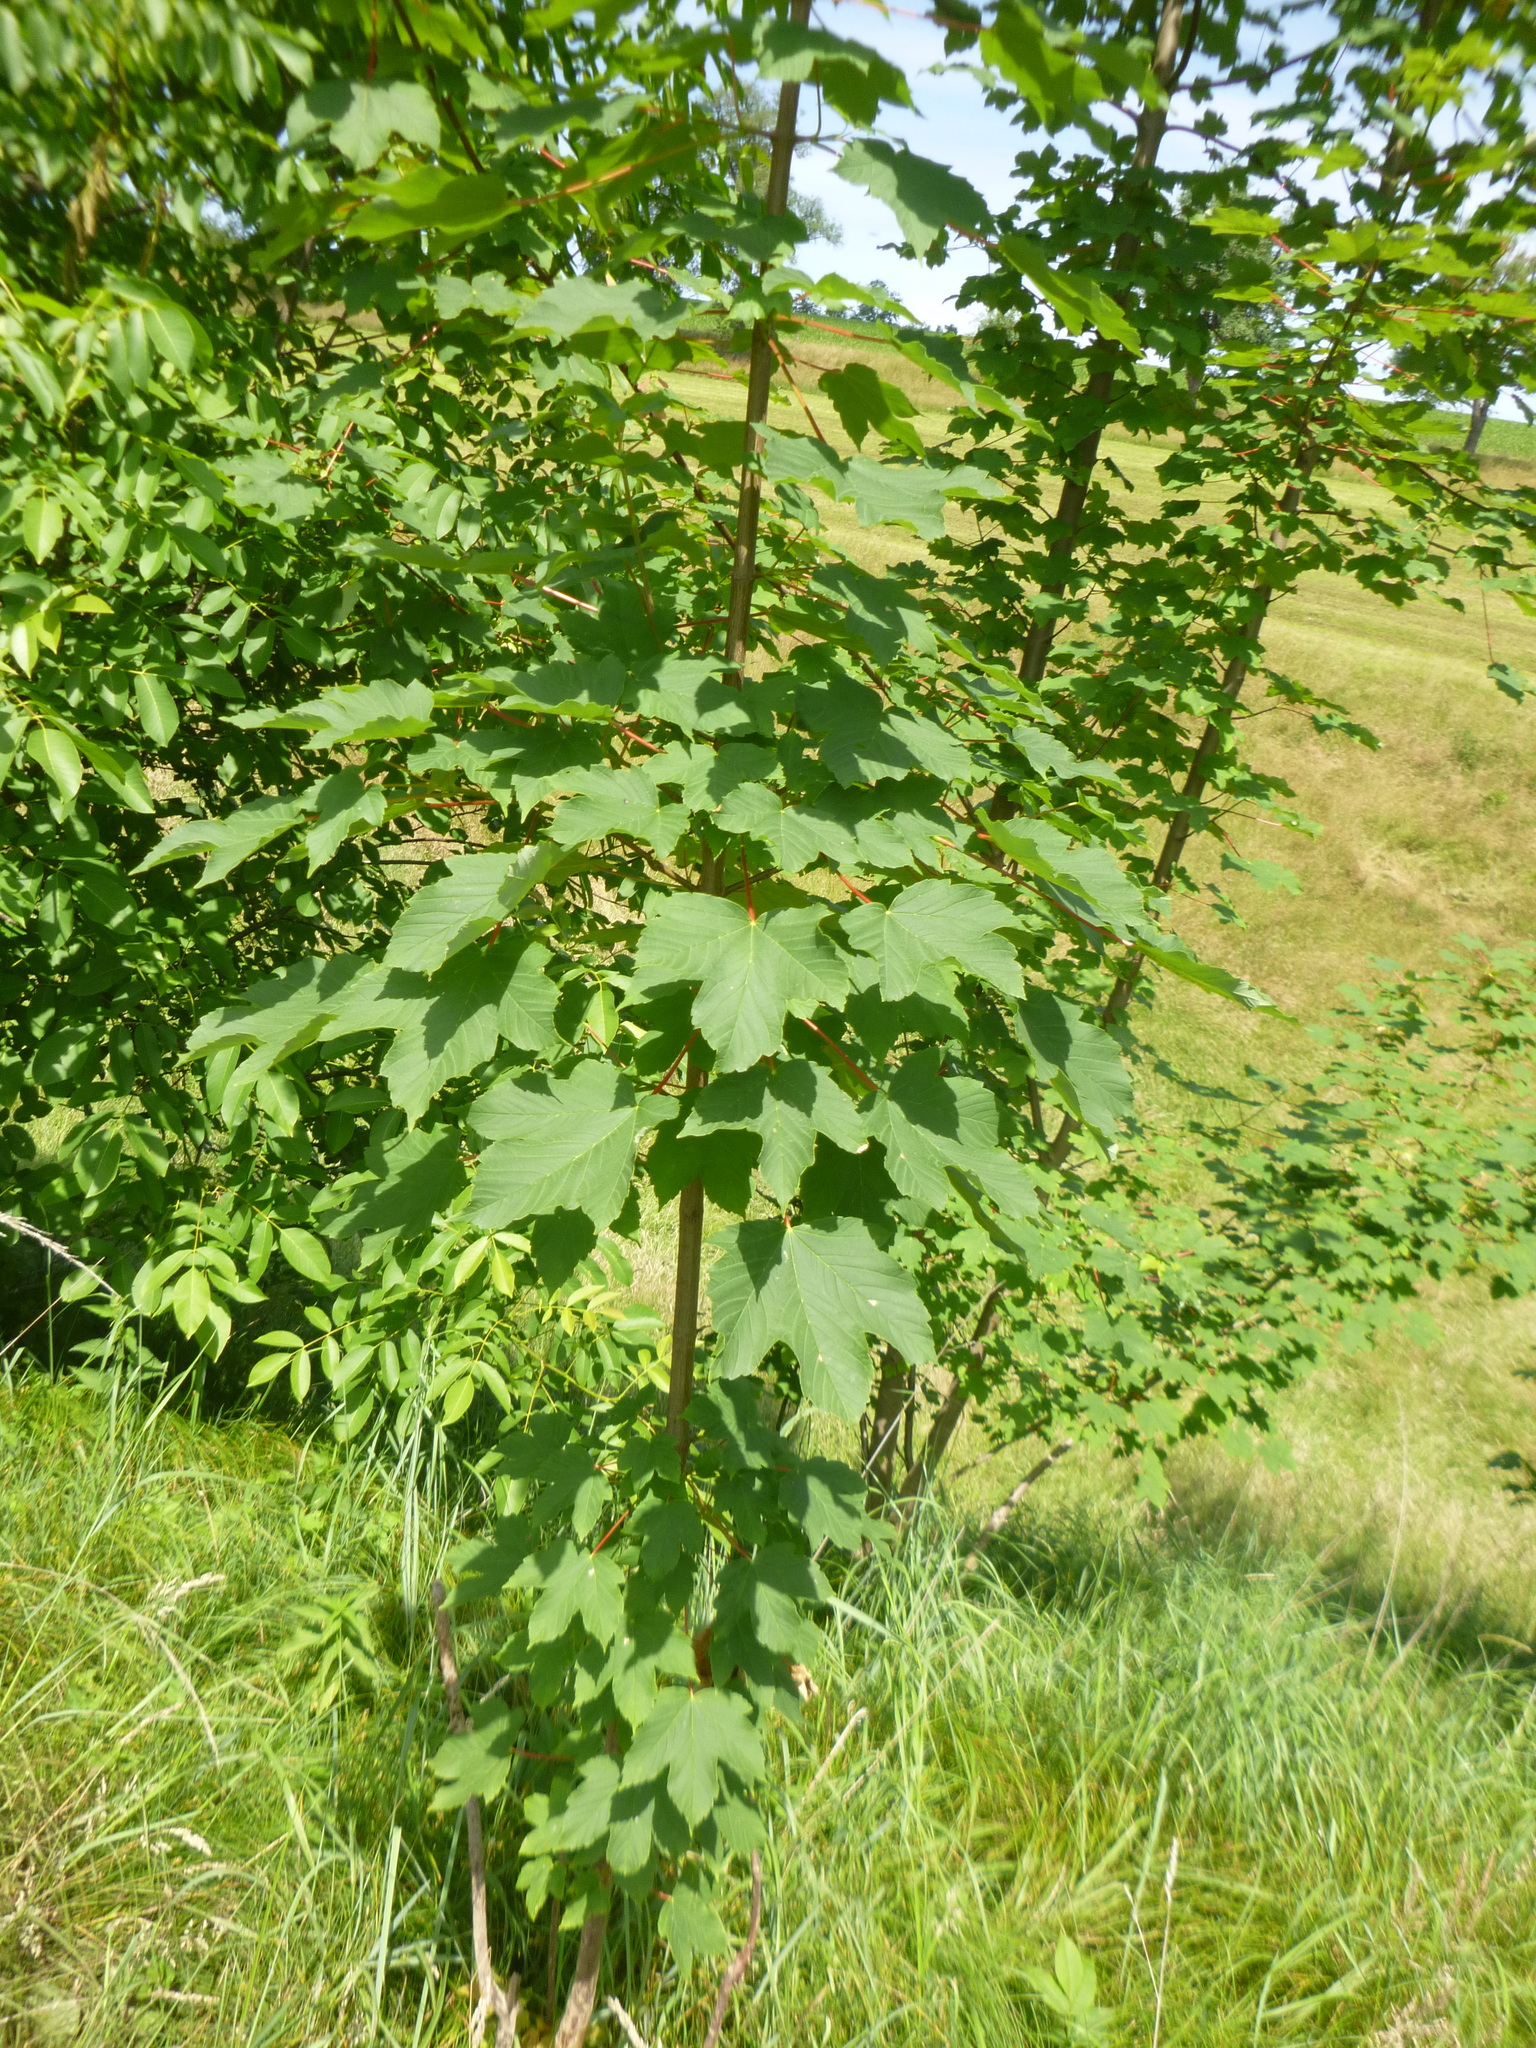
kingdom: Plantae
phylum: Tracheophyta
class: Magnoliopsida
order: Sapindales
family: Sapindaceae
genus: Acer
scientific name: Acer pseudoplatanus
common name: Sycamore
